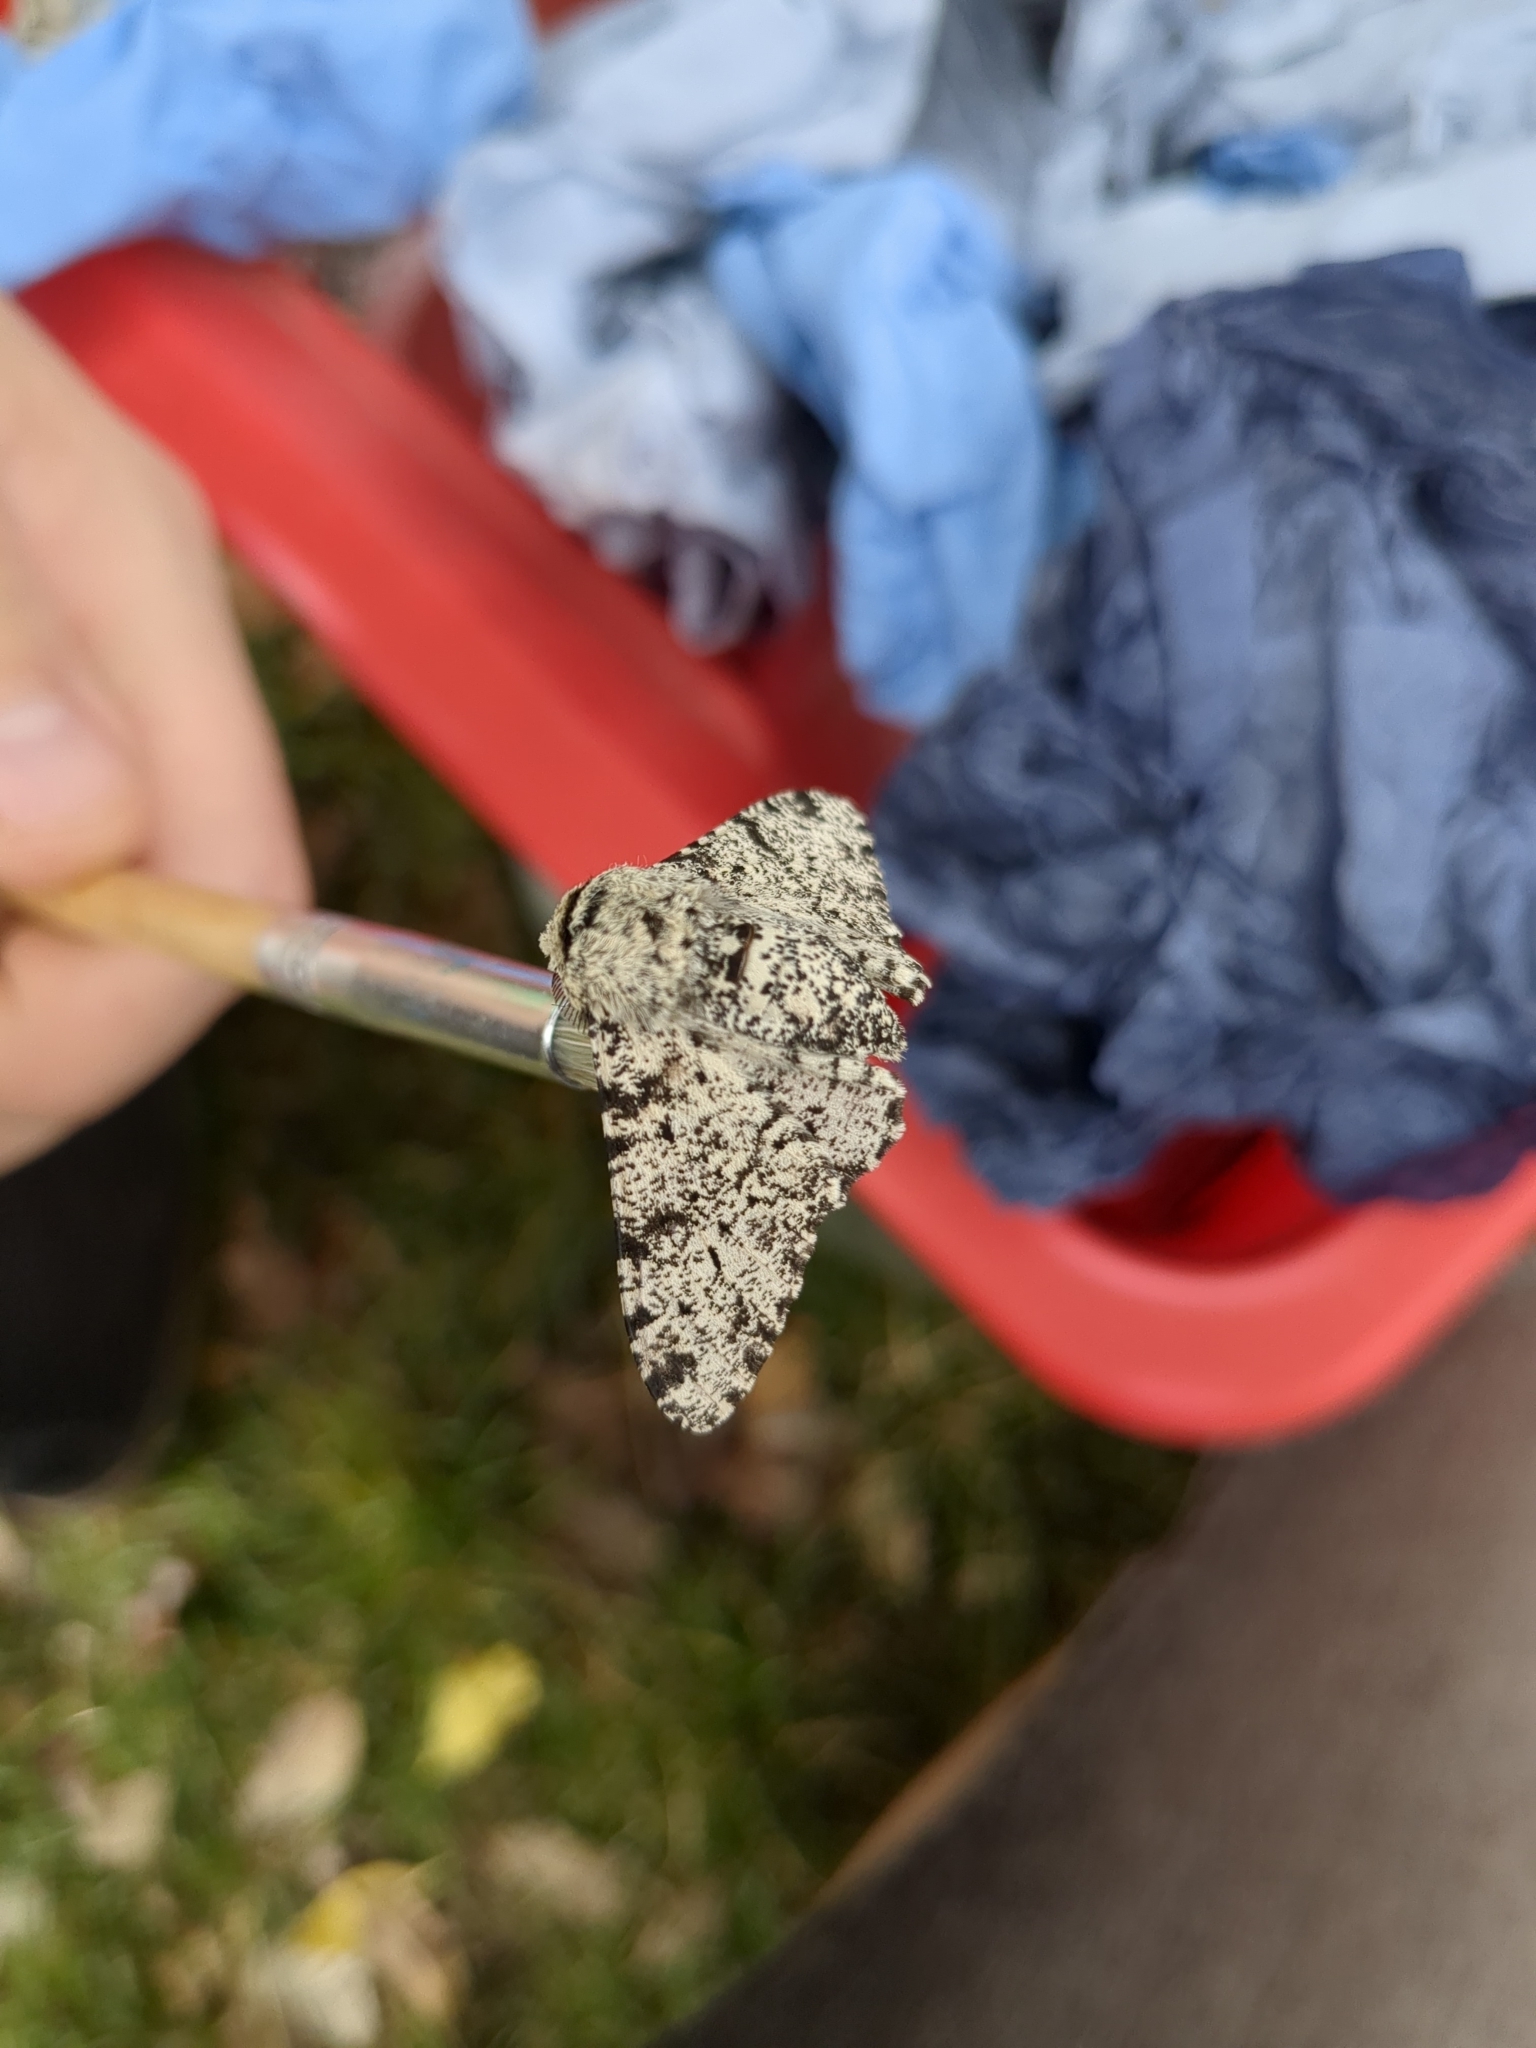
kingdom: Animalia
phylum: Arthropoda
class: Insecta
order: Lepidoptera
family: Geometridae
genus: Biston
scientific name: Biston betularia
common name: Peppered moth
